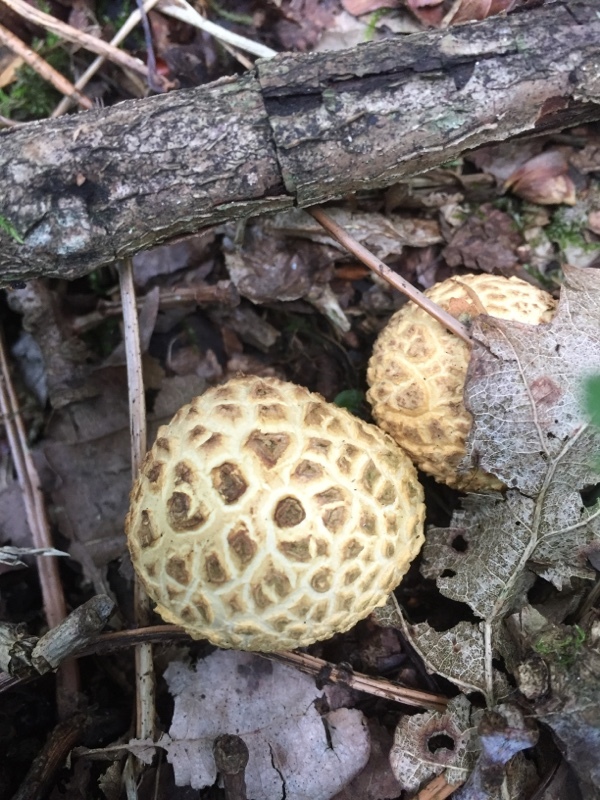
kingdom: Fungi
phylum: Basidiomycota
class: Agaricomycetes
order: Boletales
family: Sclerodermataceae
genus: Scleroderma
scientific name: Scleroderma citrinum
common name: Common earthball
